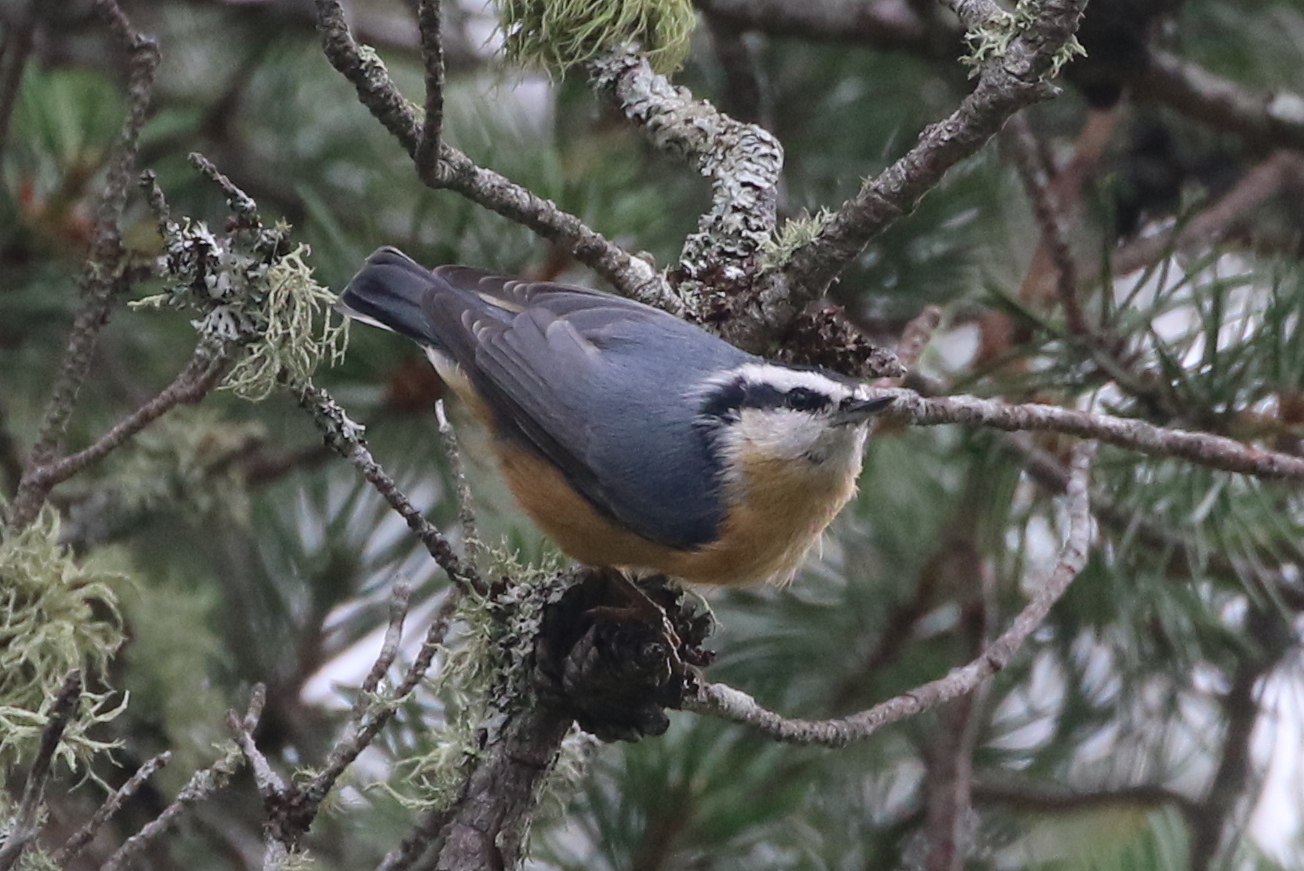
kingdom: Animalia
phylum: Chordata
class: Aves
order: Passeriformes
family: Sittidae
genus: Sitta
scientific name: Sitta canadensis
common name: Red-breasted nuthatch
